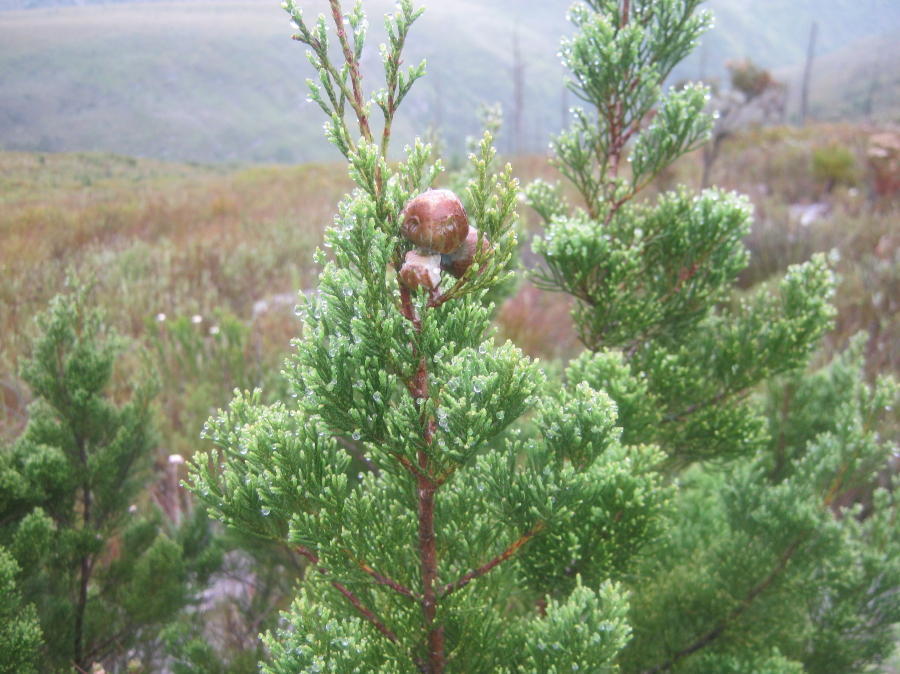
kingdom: Plantae
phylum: Tracheophyta
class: Pinopsida
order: Pinales
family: Cupressaceae
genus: Widdringtonia
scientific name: Widdringtonia nodiflora
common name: Cape cypress
